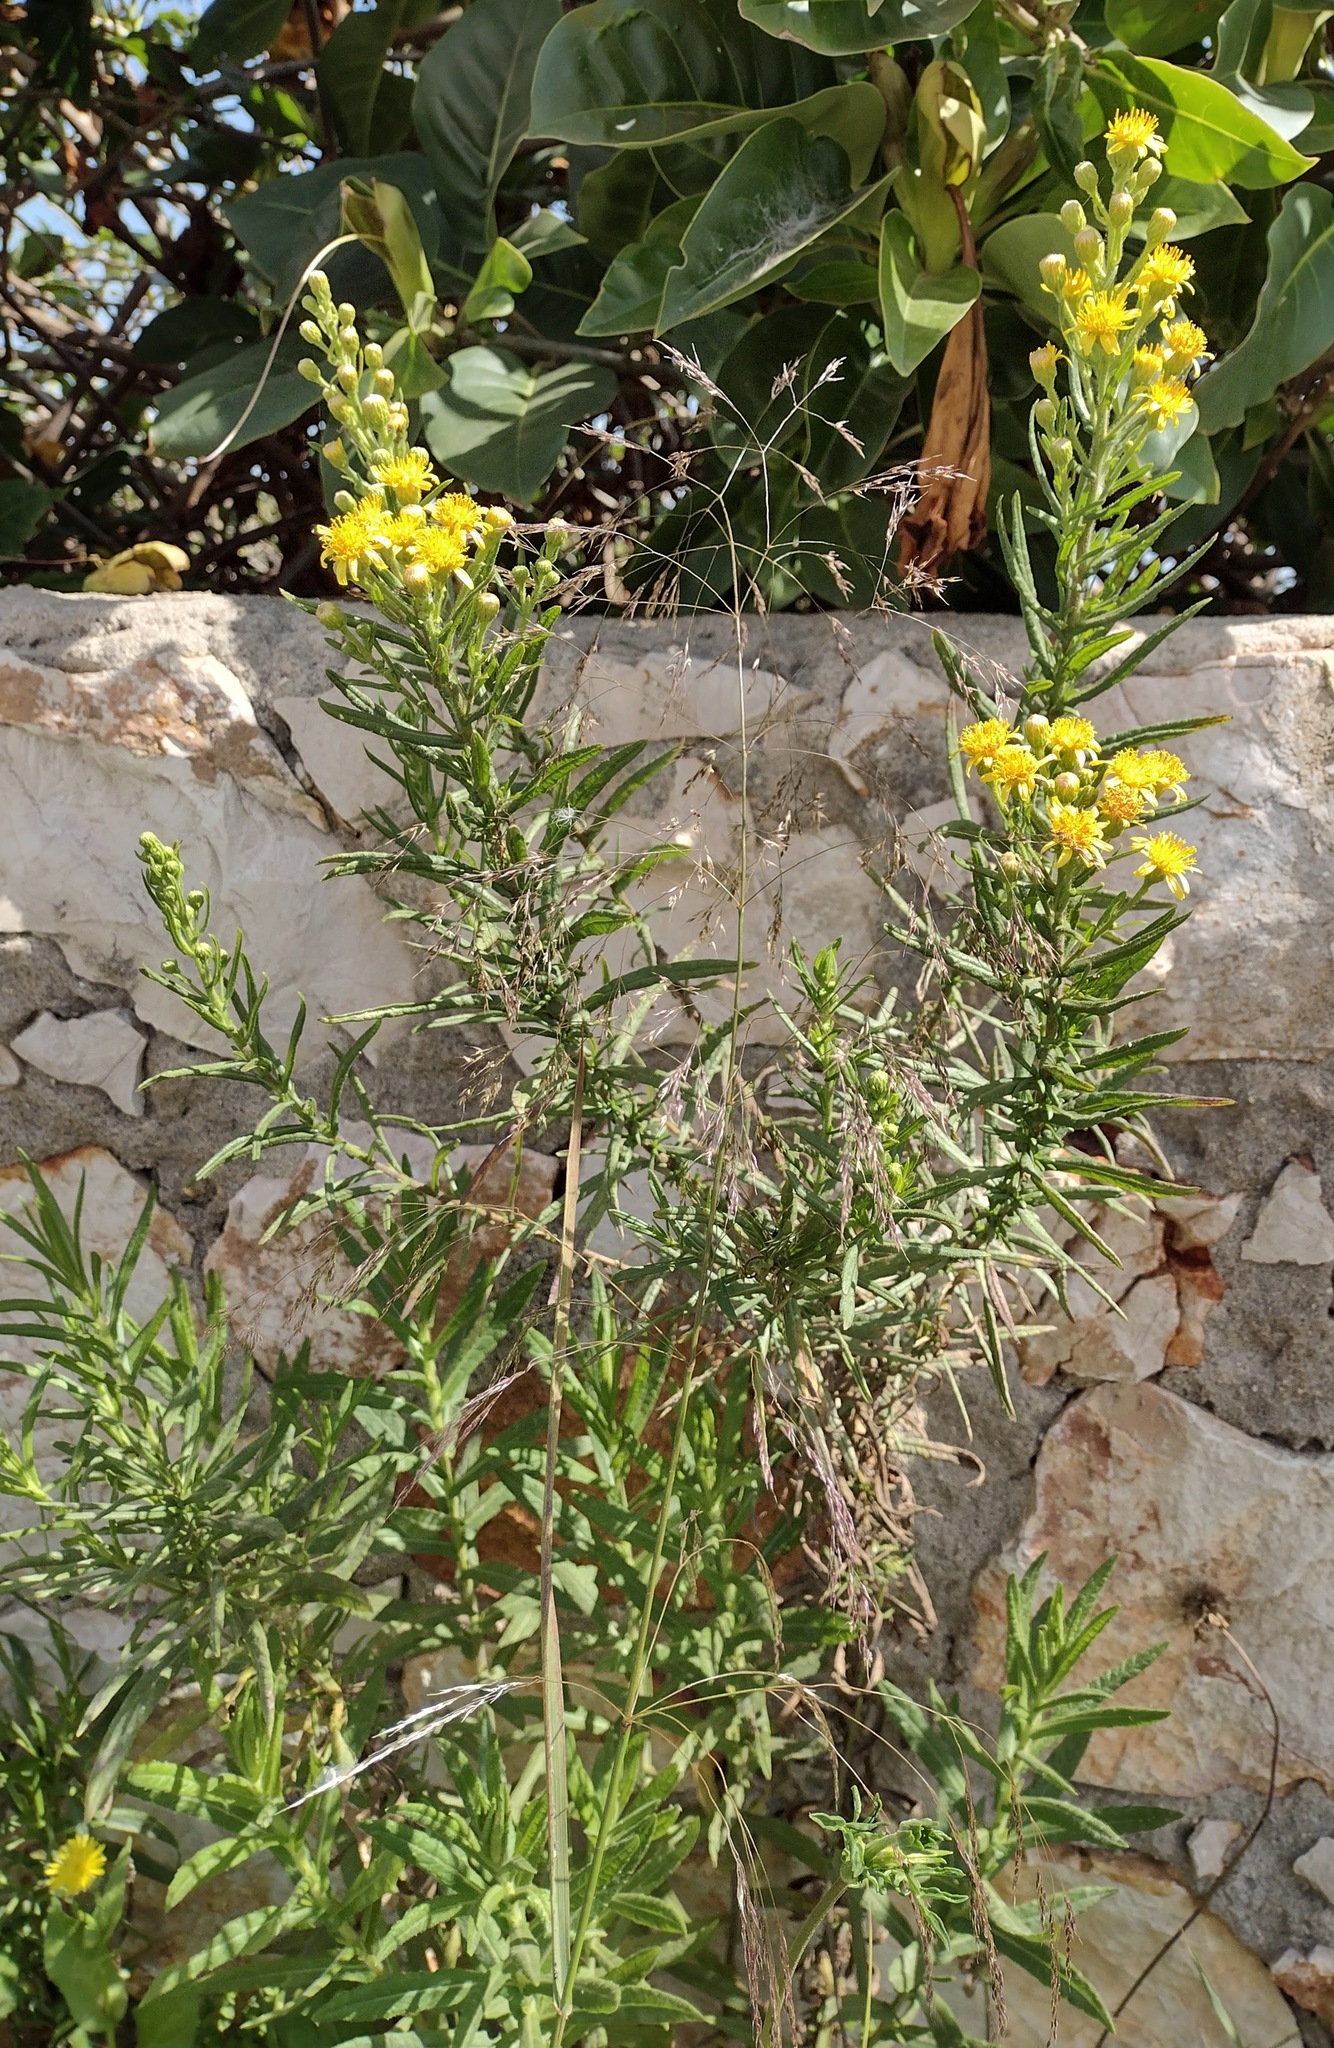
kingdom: Plantae
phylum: Tracheophyta
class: Magnoliopsida
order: Asterales
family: Asteraceae
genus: Dittrichia
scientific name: Dittrichia viscosa
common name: Woody fleabane
